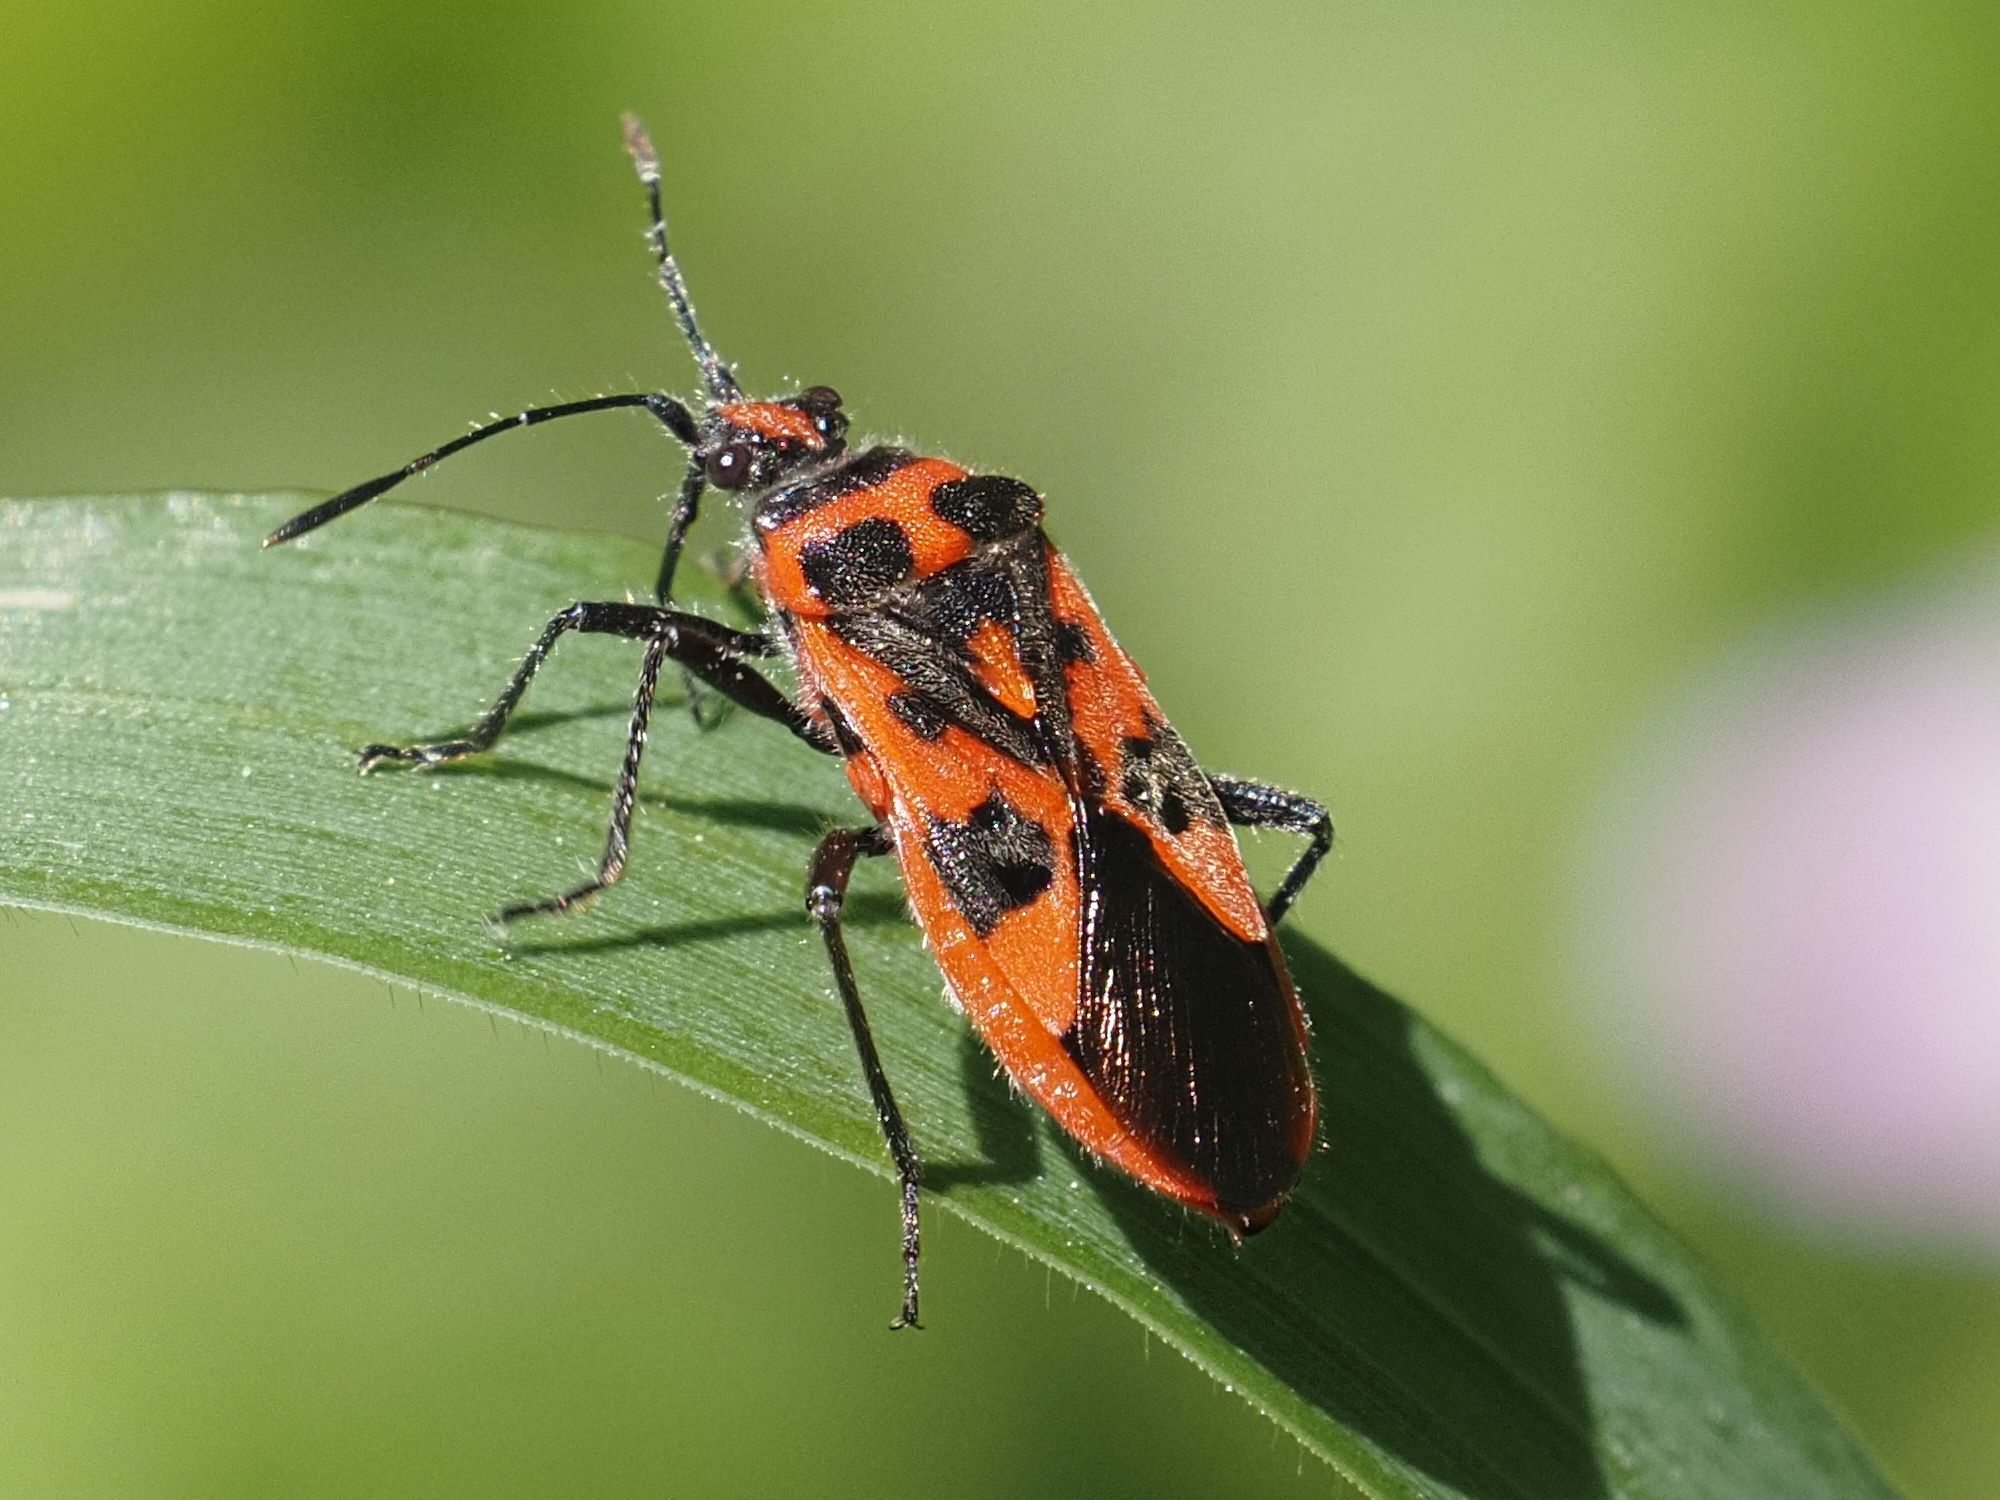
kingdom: Animalia
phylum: Arthropoda
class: Insecta
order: Hemiptera
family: Rhopalidae
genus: Corizus
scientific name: Corizus hyoscyami
